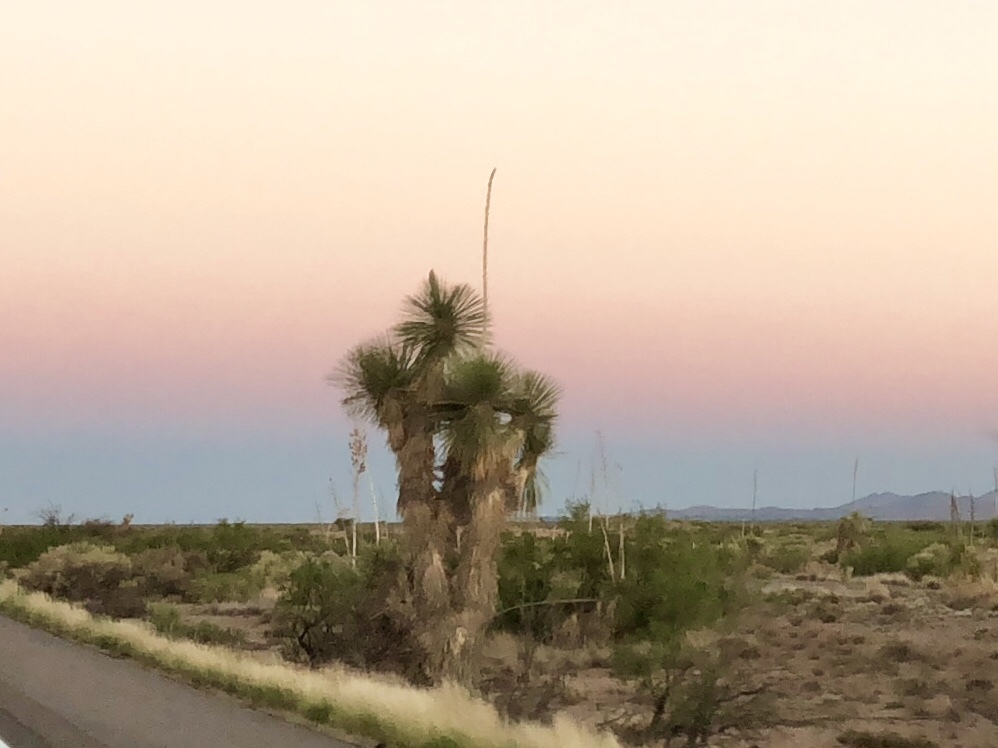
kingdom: Plantae
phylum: Tracheophyta
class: Liliopsida
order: Asparagales
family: Asparagaceae
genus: Yucca
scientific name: Yucca elata
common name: Palmella
